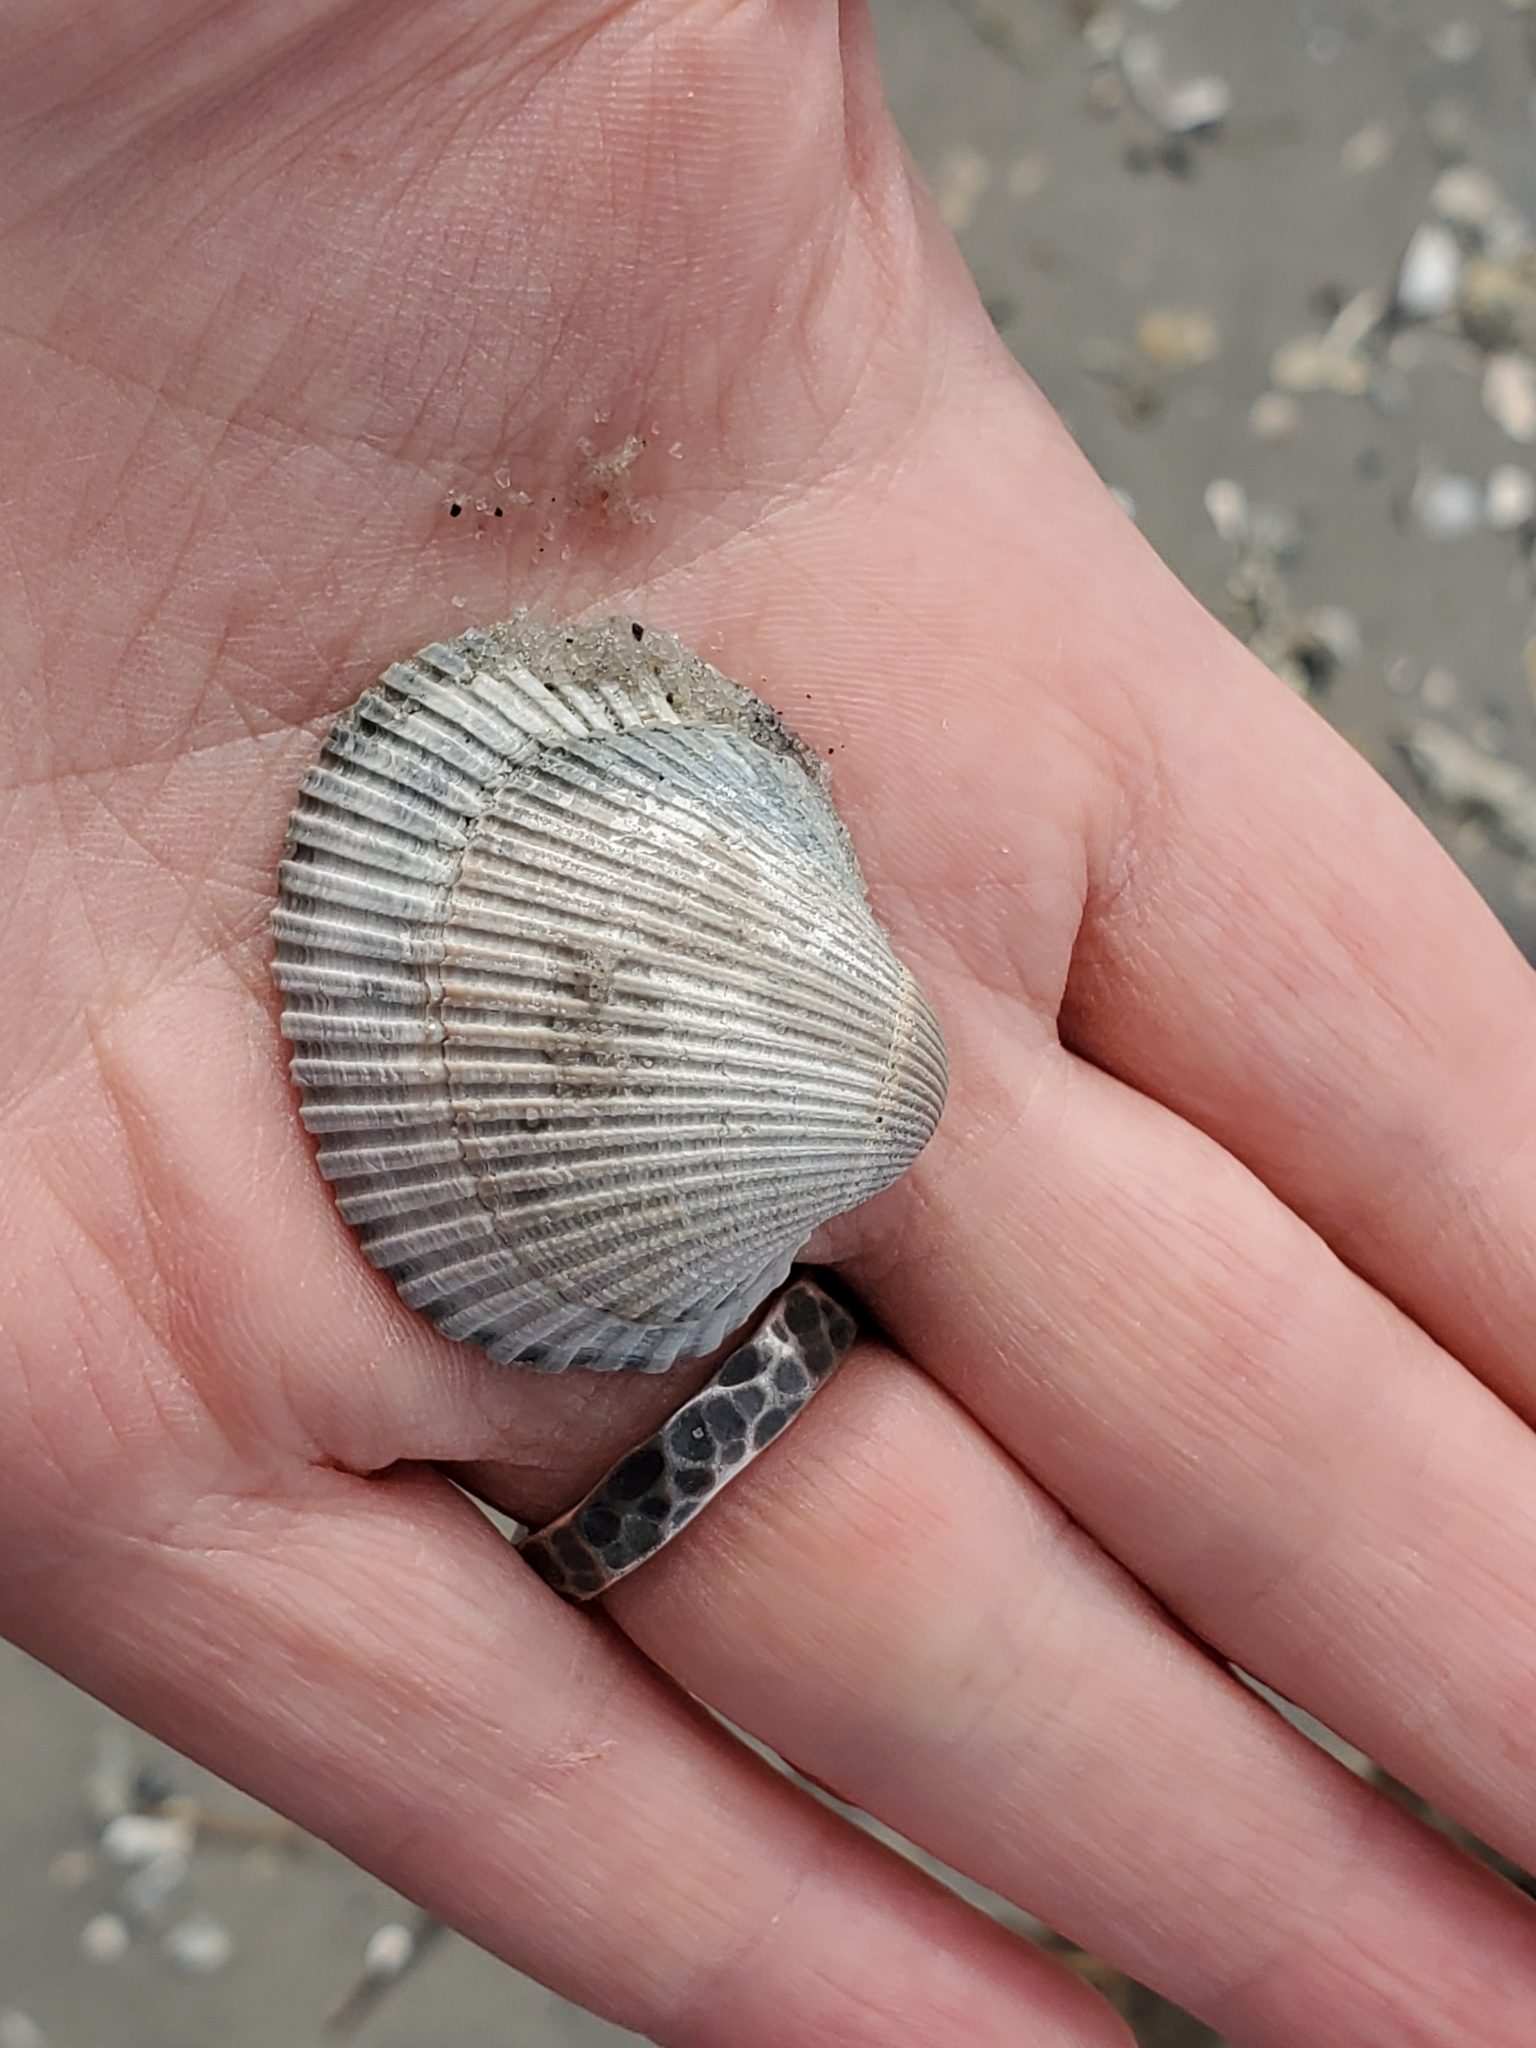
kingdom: Animalia
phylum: Mollusca
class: Bivalvia
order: Arcida
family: Arcidae
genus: Lunarca
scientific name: Lunarca ovalis
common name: Blood ark
